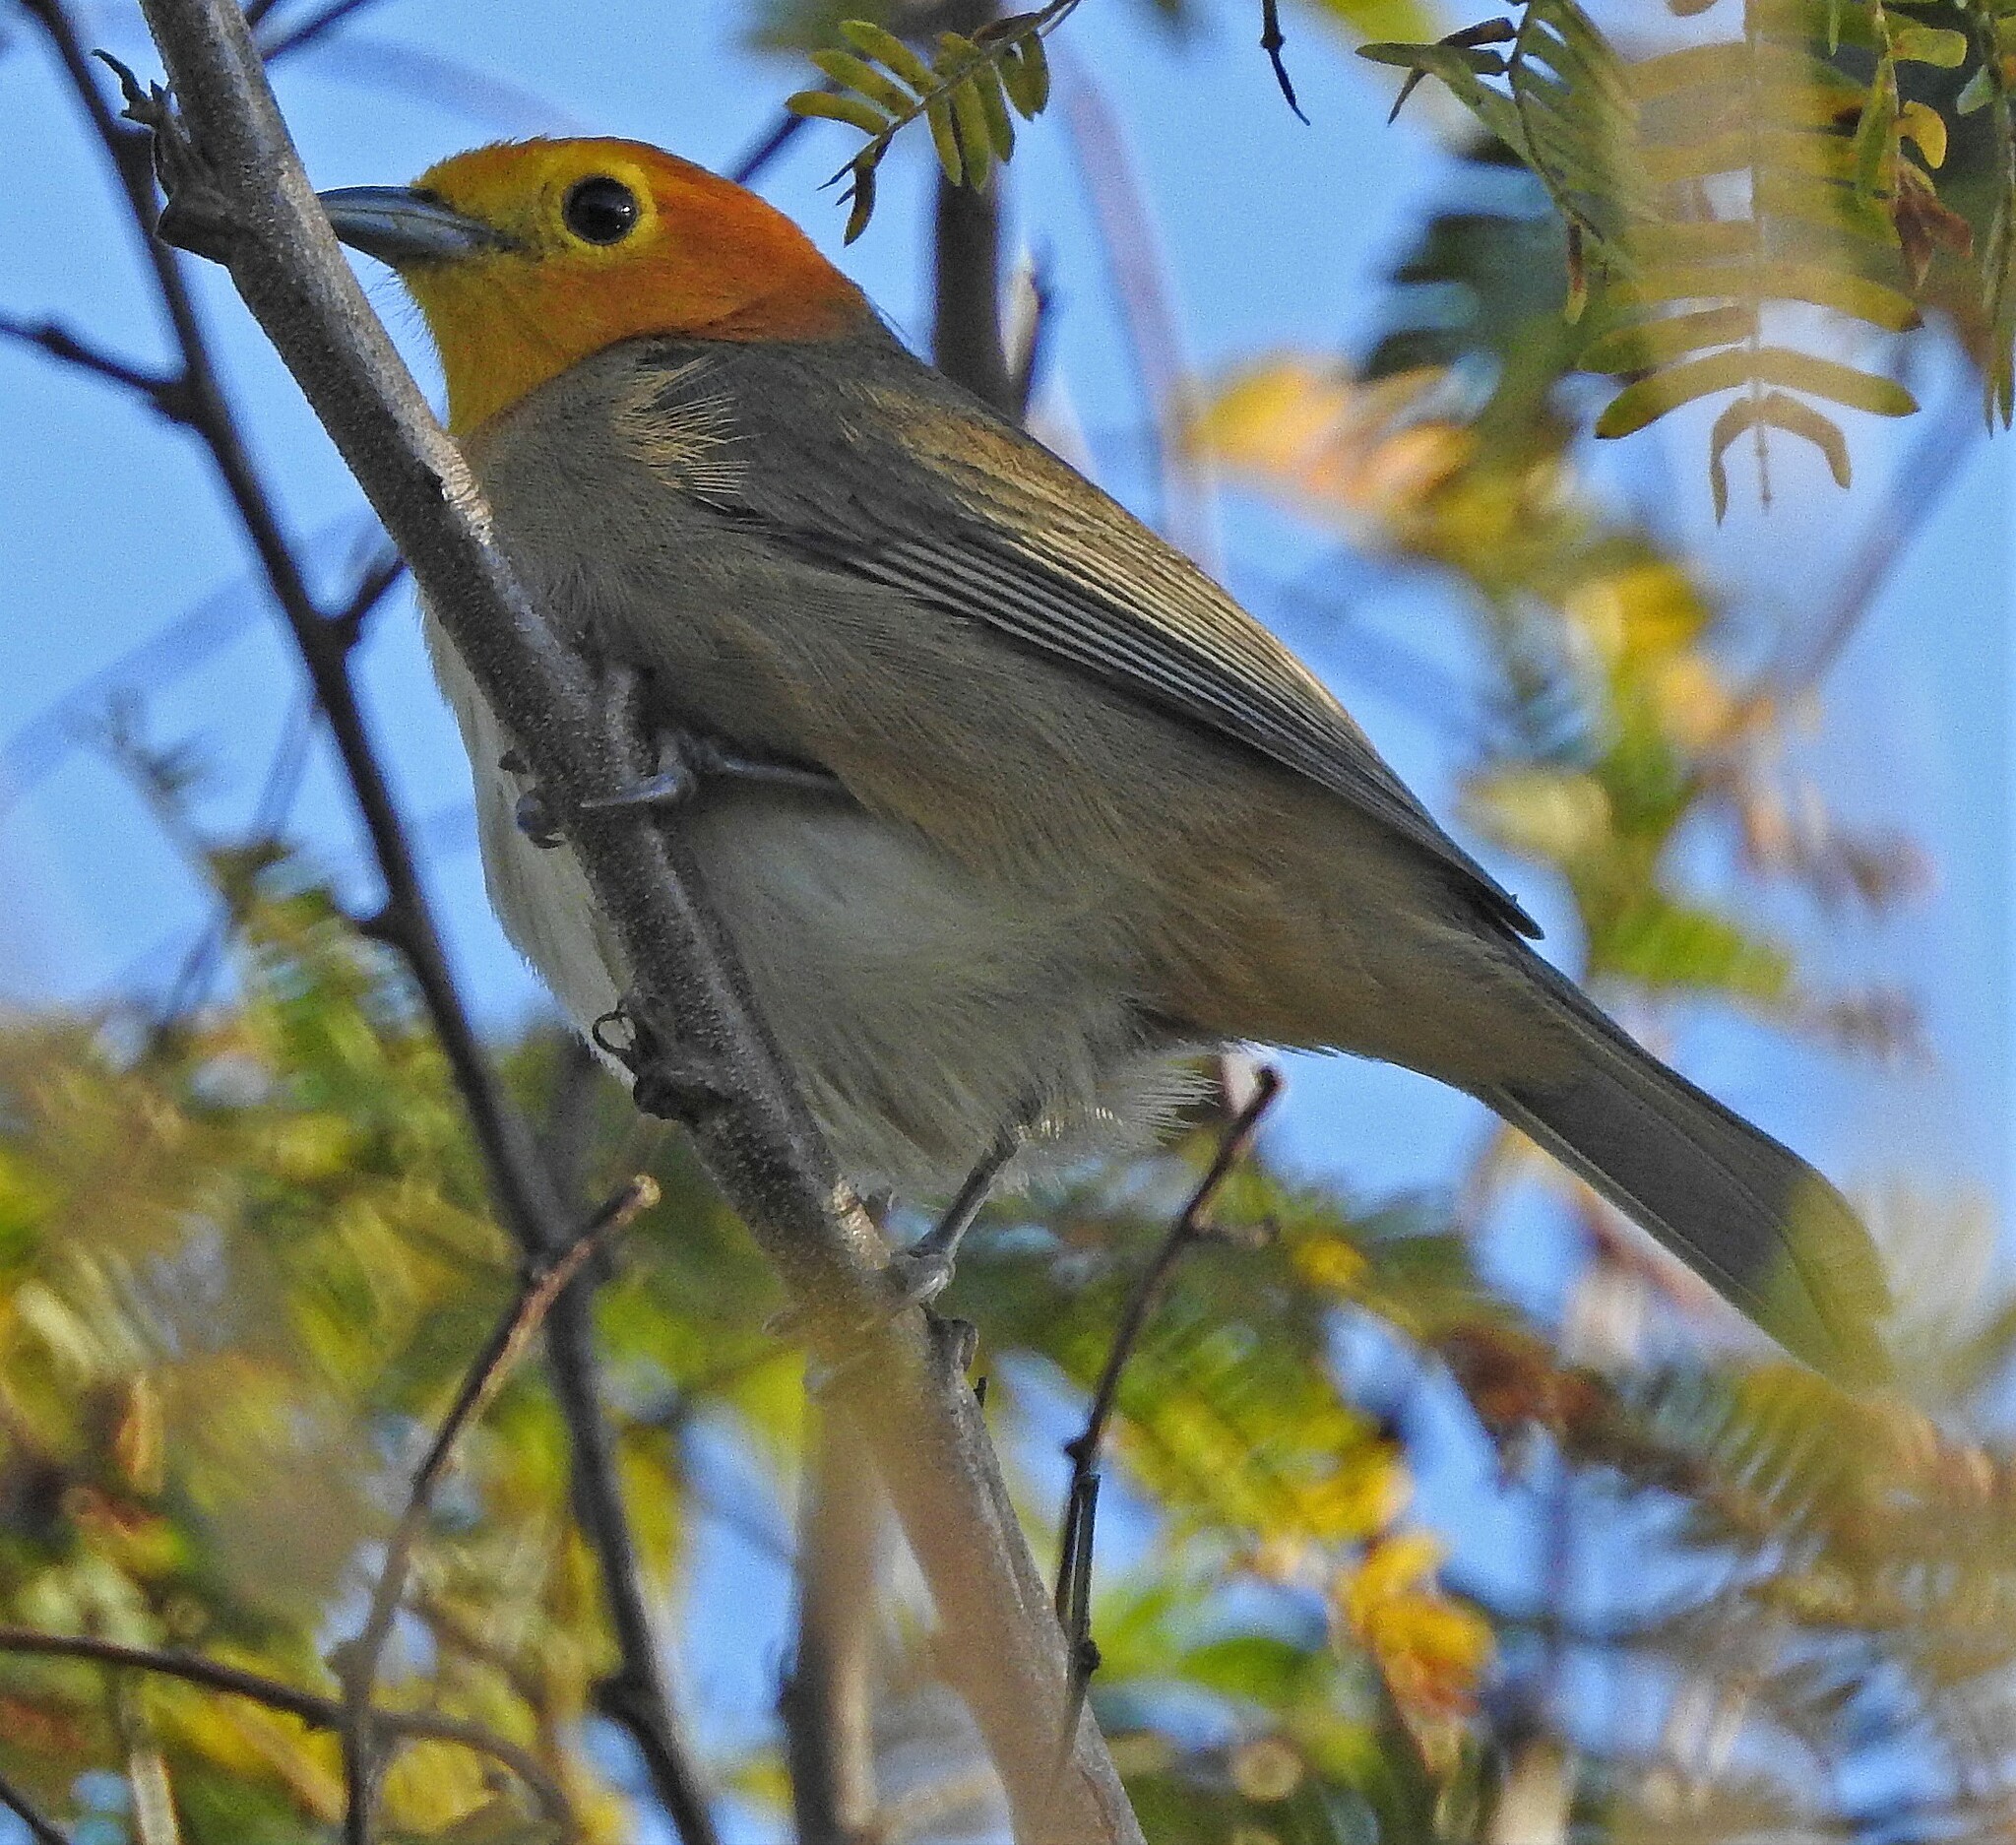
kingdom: Animalia
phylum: Chordata
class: Aves
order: Passeriformes
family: Thraupidae
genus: Thlypopsis
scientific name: Thlypopsis sordida
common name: Orange-headed tanager
